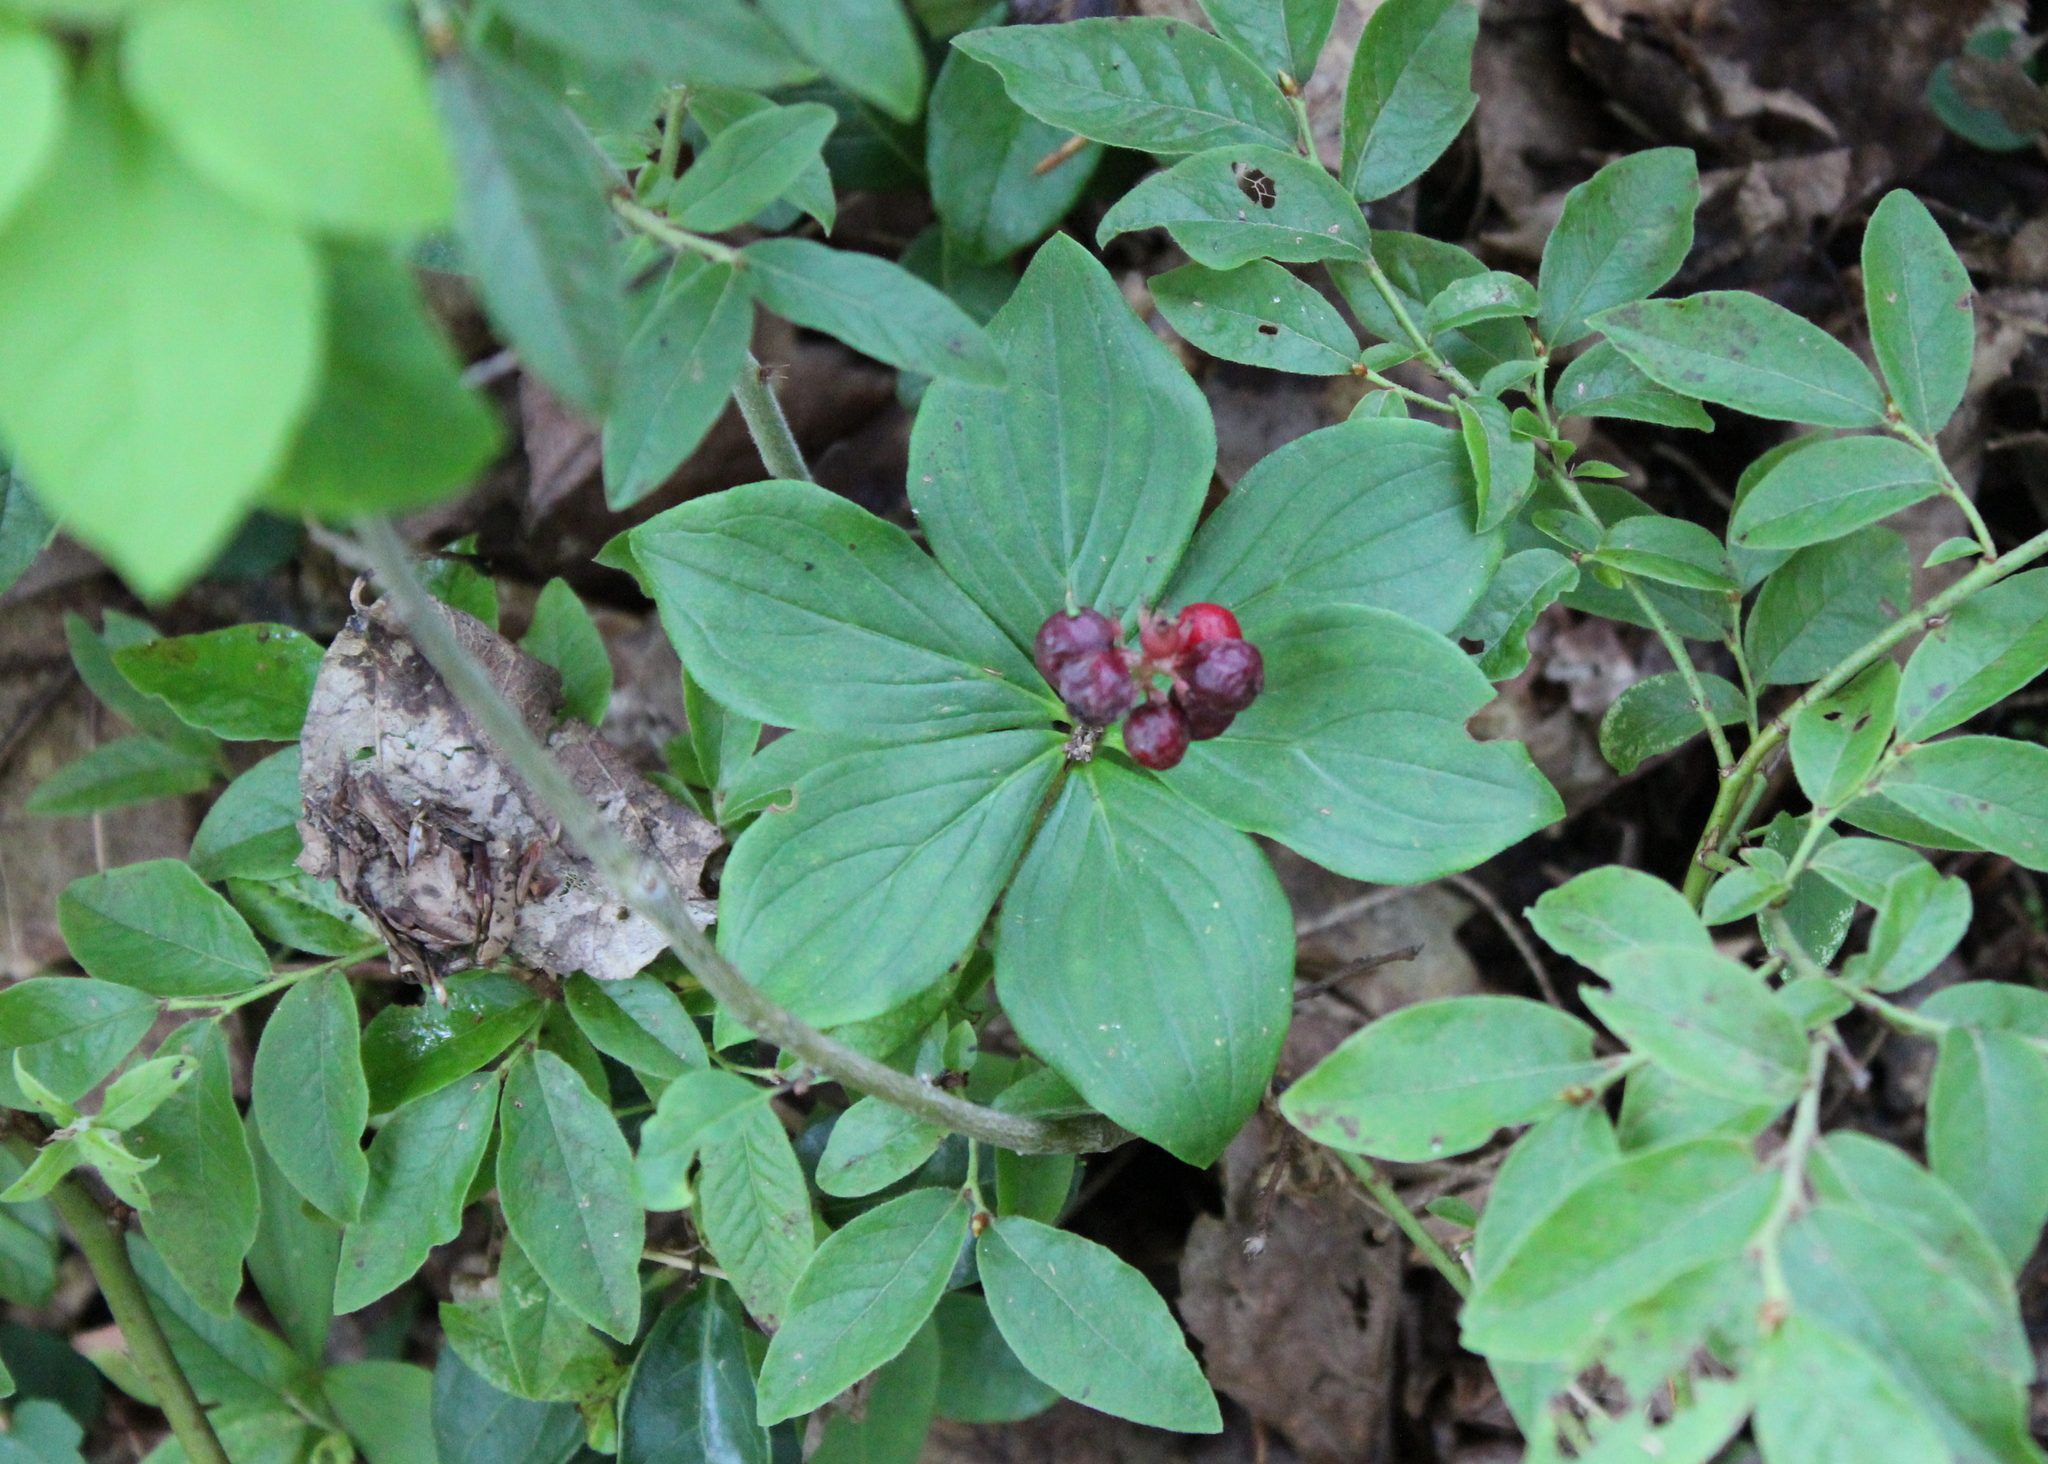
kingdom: Plantae
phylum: Tracheophyta
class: Magnoliopsida
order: Cornales
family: Cornaceae
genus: Cornus
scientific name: Cornus canadensis
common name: Creeping dogwood
